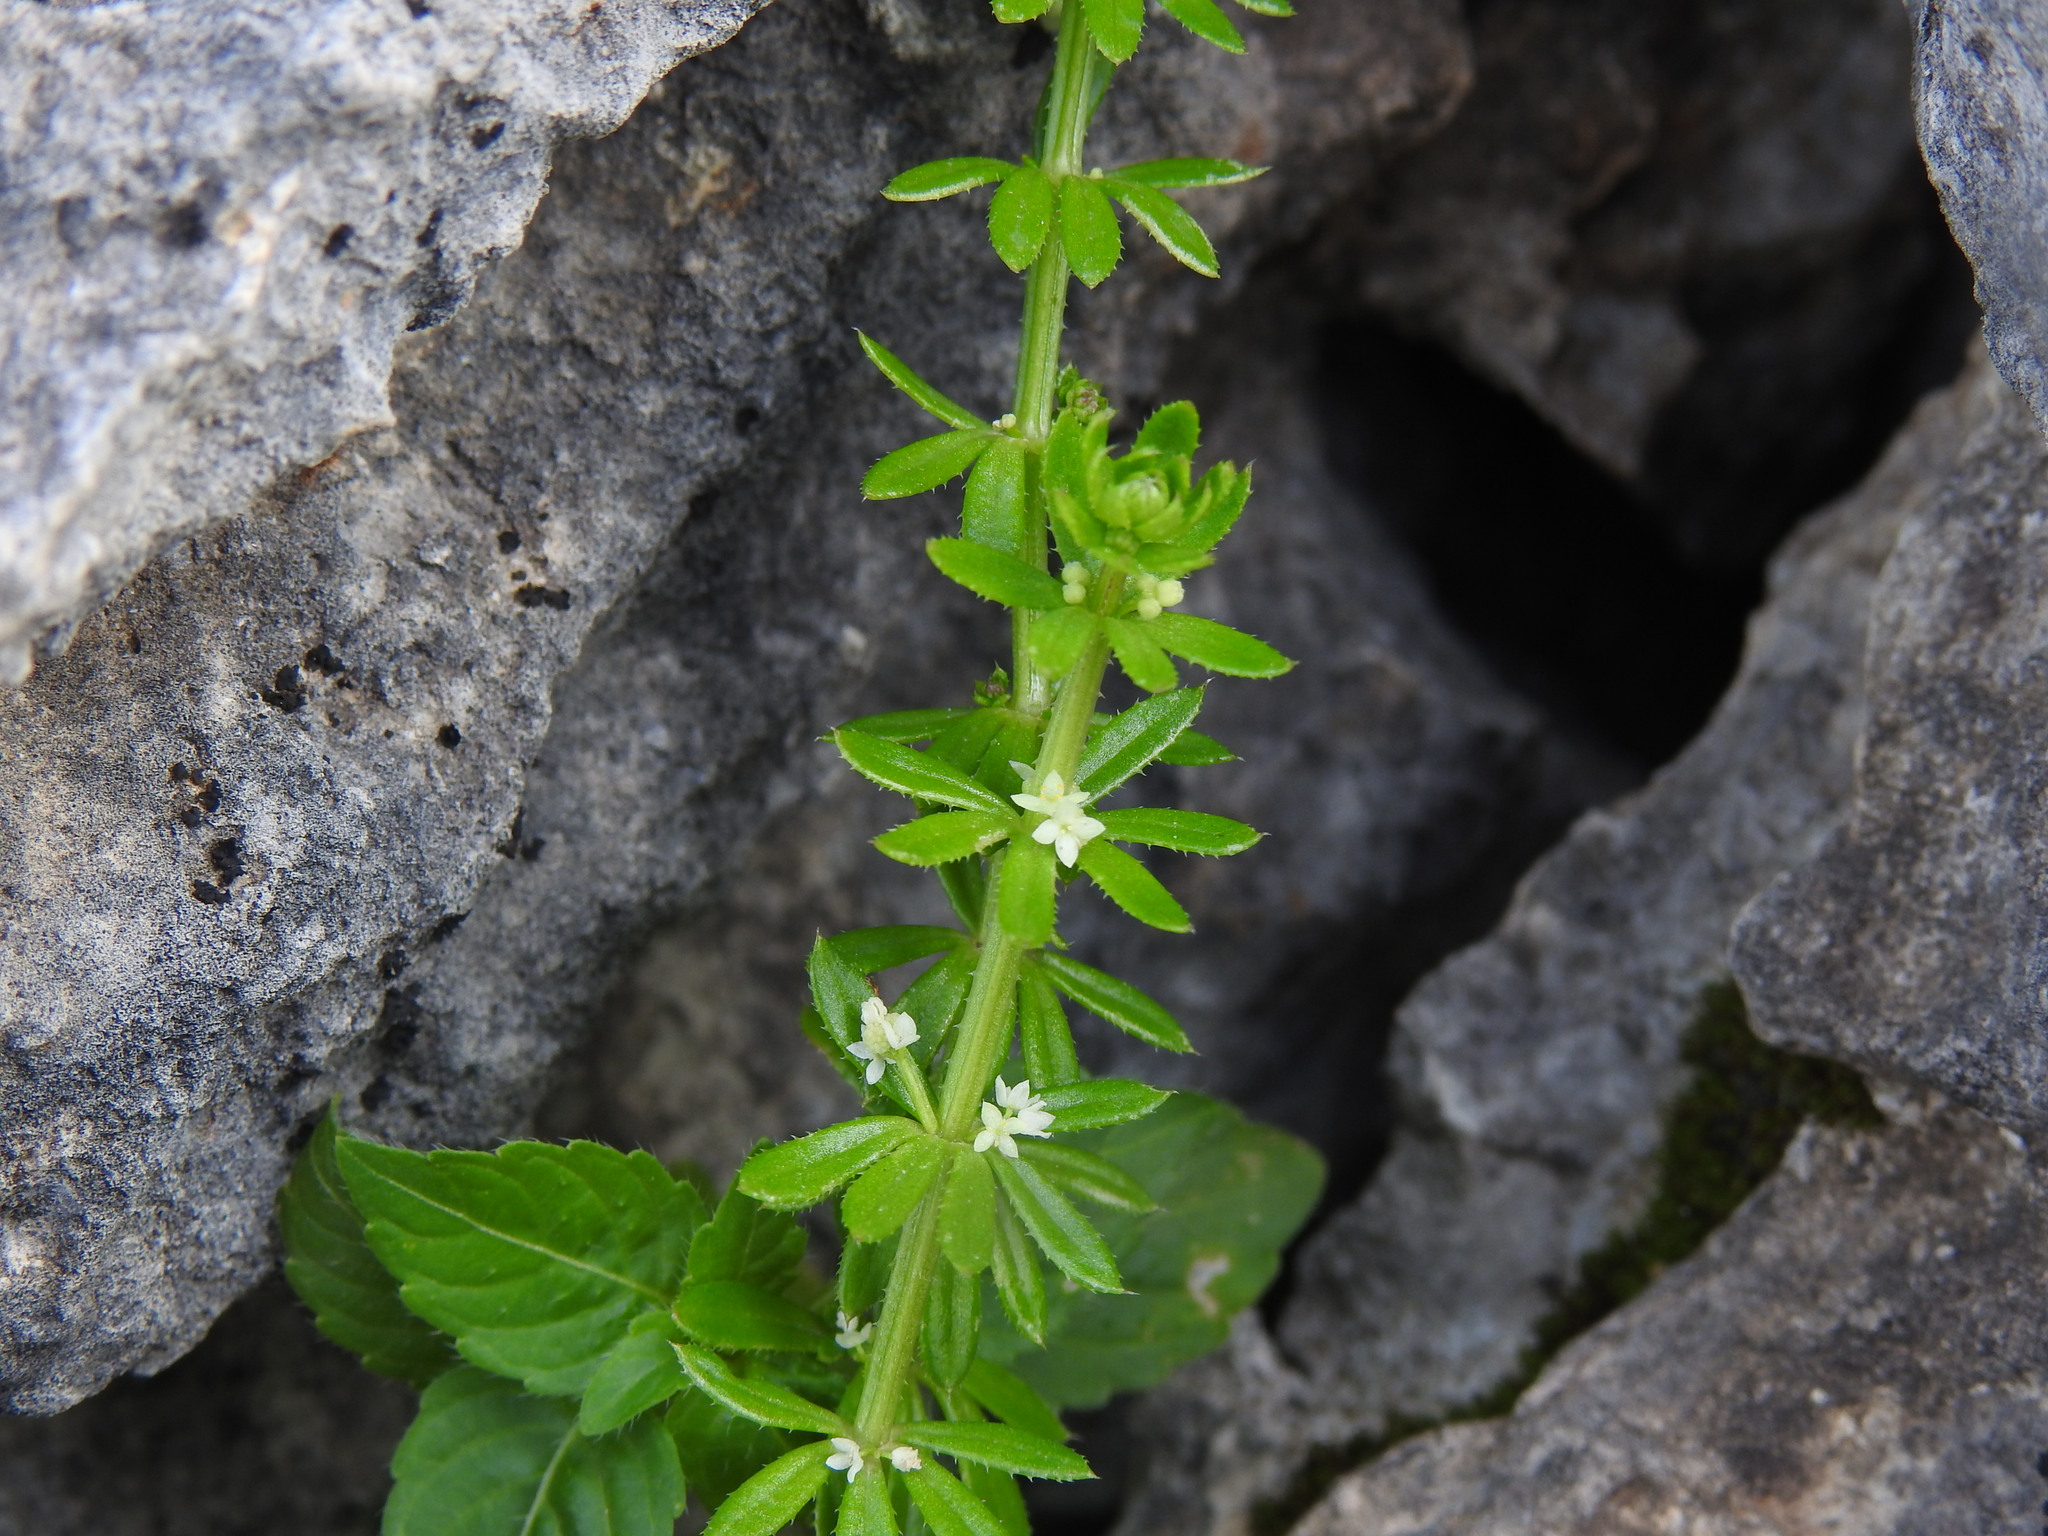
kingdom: Plantae
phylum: Tracheophyta
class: Magnoliopsida
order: Gentianales
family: Rubiaceae
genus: Galium
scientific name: Galium verrucosum
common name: Warty bedstraw
